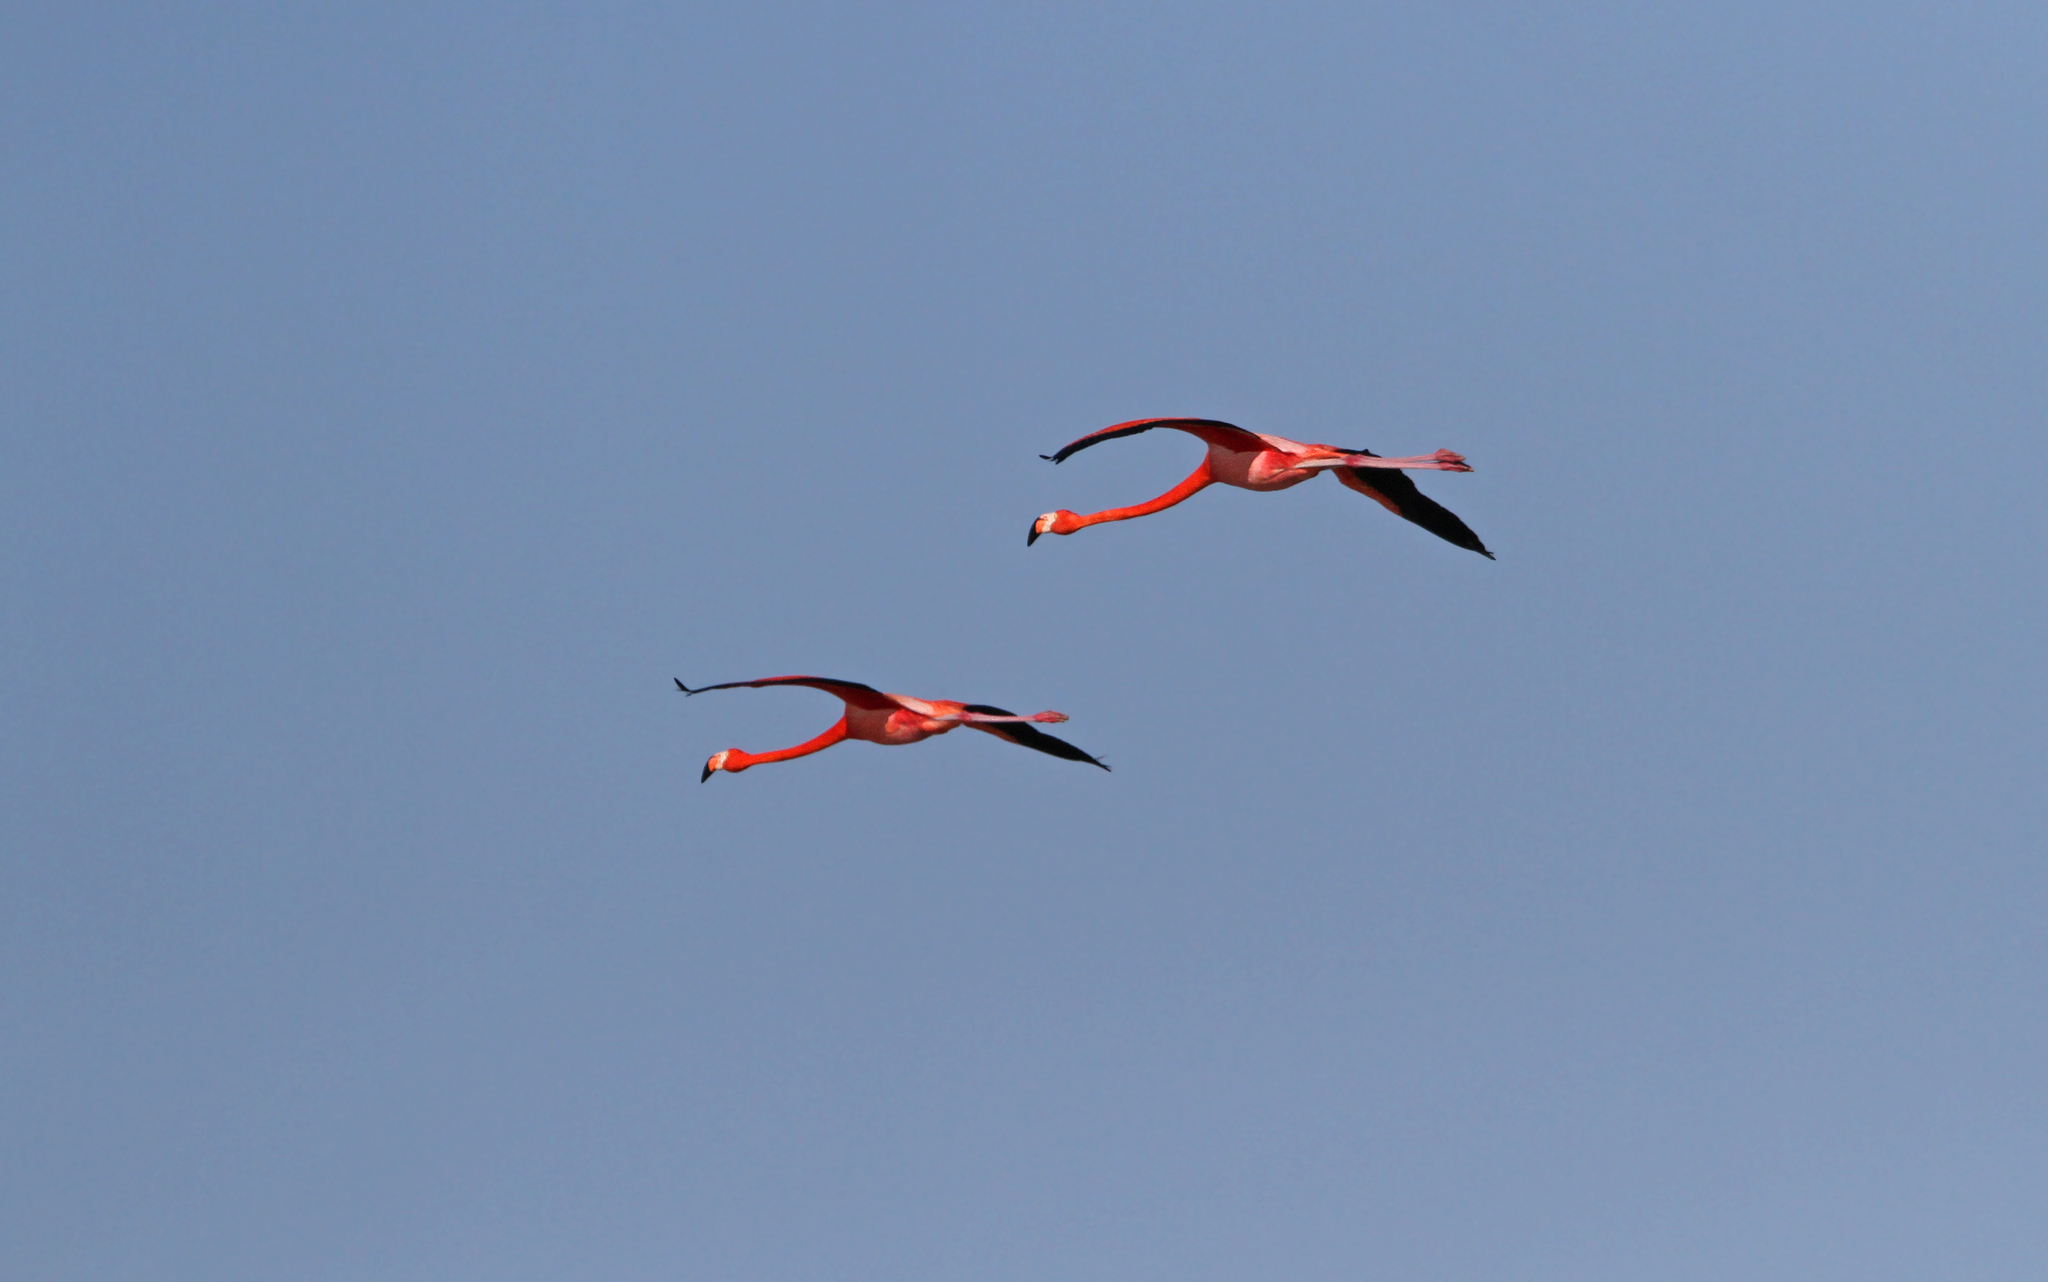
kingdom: Animalia
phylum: Chordata
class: Aves
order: Phoenicopteriformes
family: Phoenicopteridae
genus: Phoenicopterus
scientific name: Phoenicopterus ruber
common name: American flamingo
